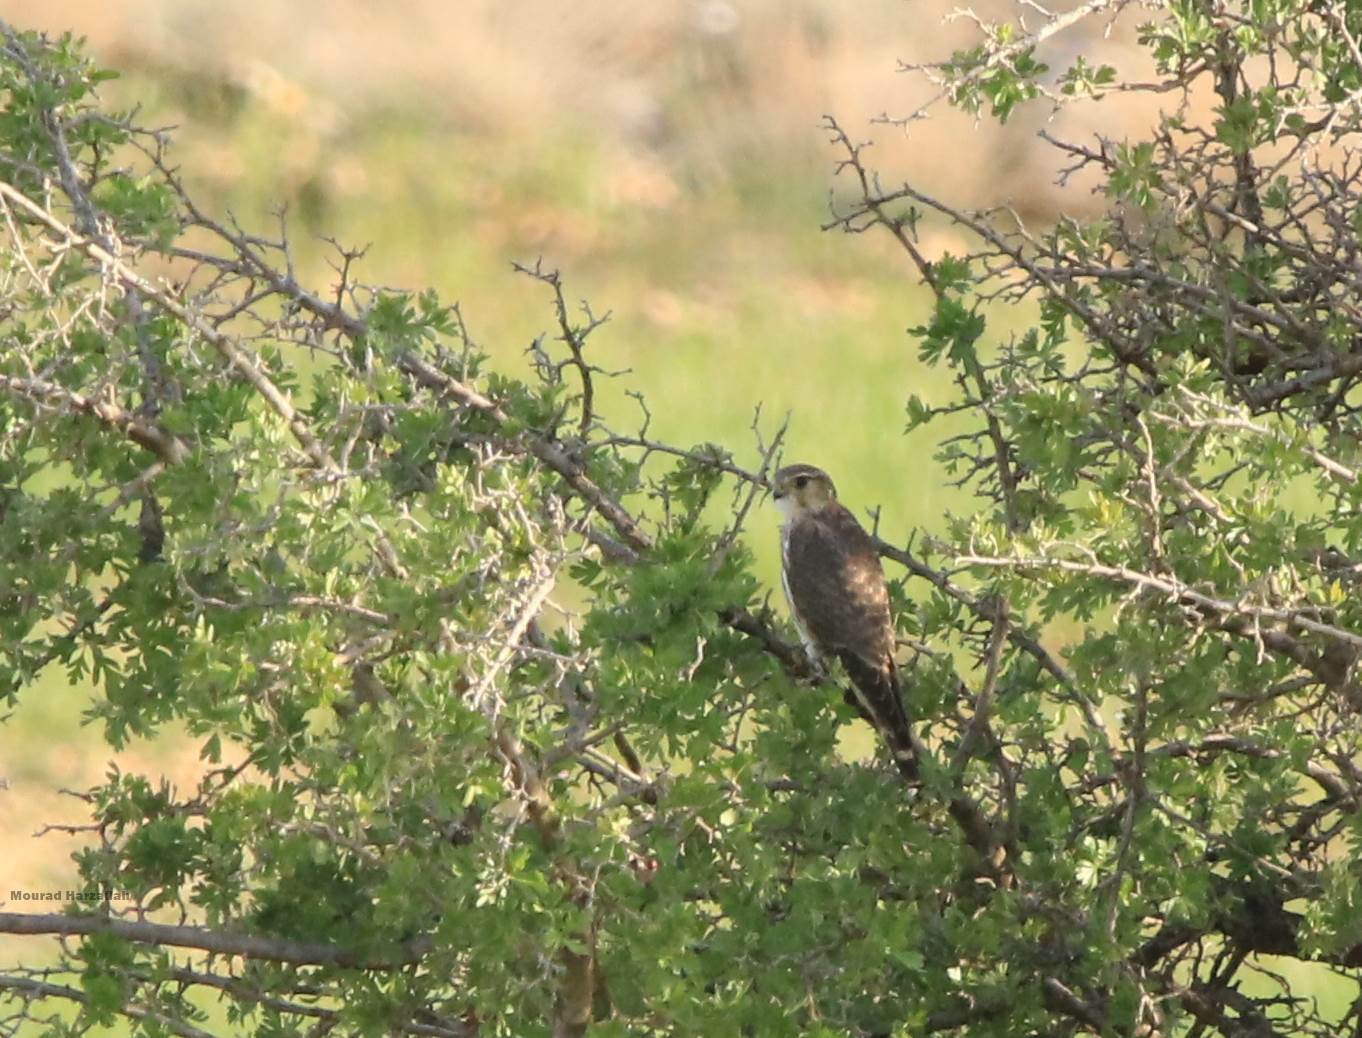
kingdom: Animalia
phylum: Chordata
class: Aves
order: Falconiformes
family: Falconidae
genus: Falco
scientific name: Falco columbarius
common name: Merlin
